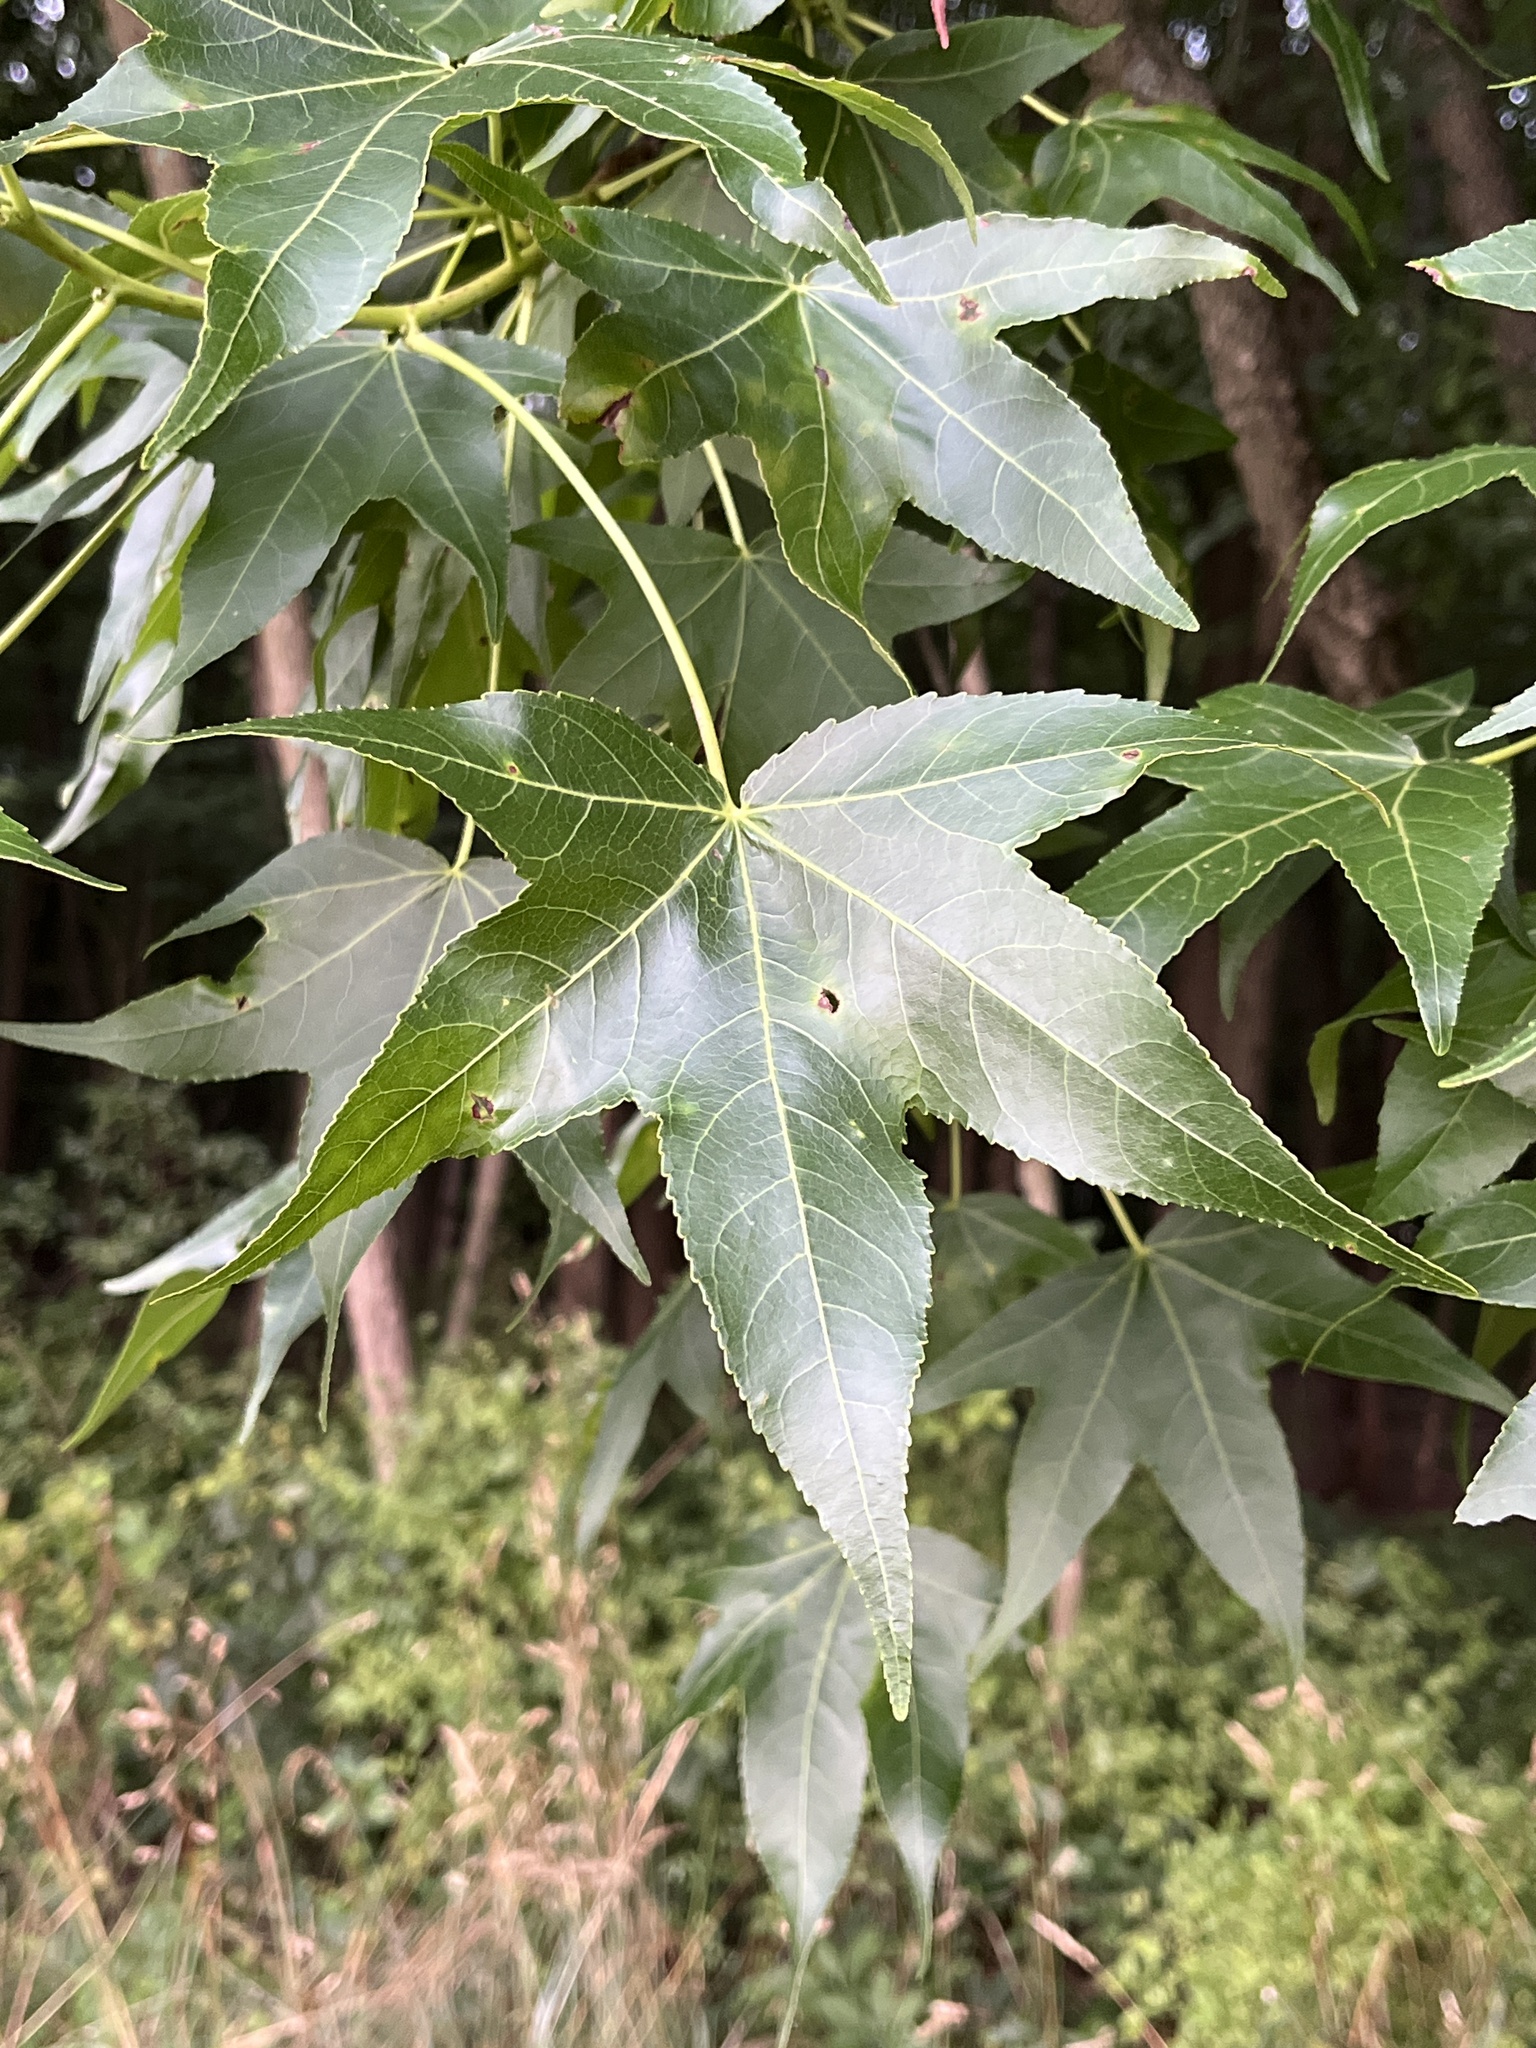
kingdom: Plantae
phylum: Tracheophyta
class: Magnoliopsida
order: Saxifragales
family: Altingiaceae
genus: Liquidambar
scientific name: Liquidambar styraciflua
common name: Sweet gum
